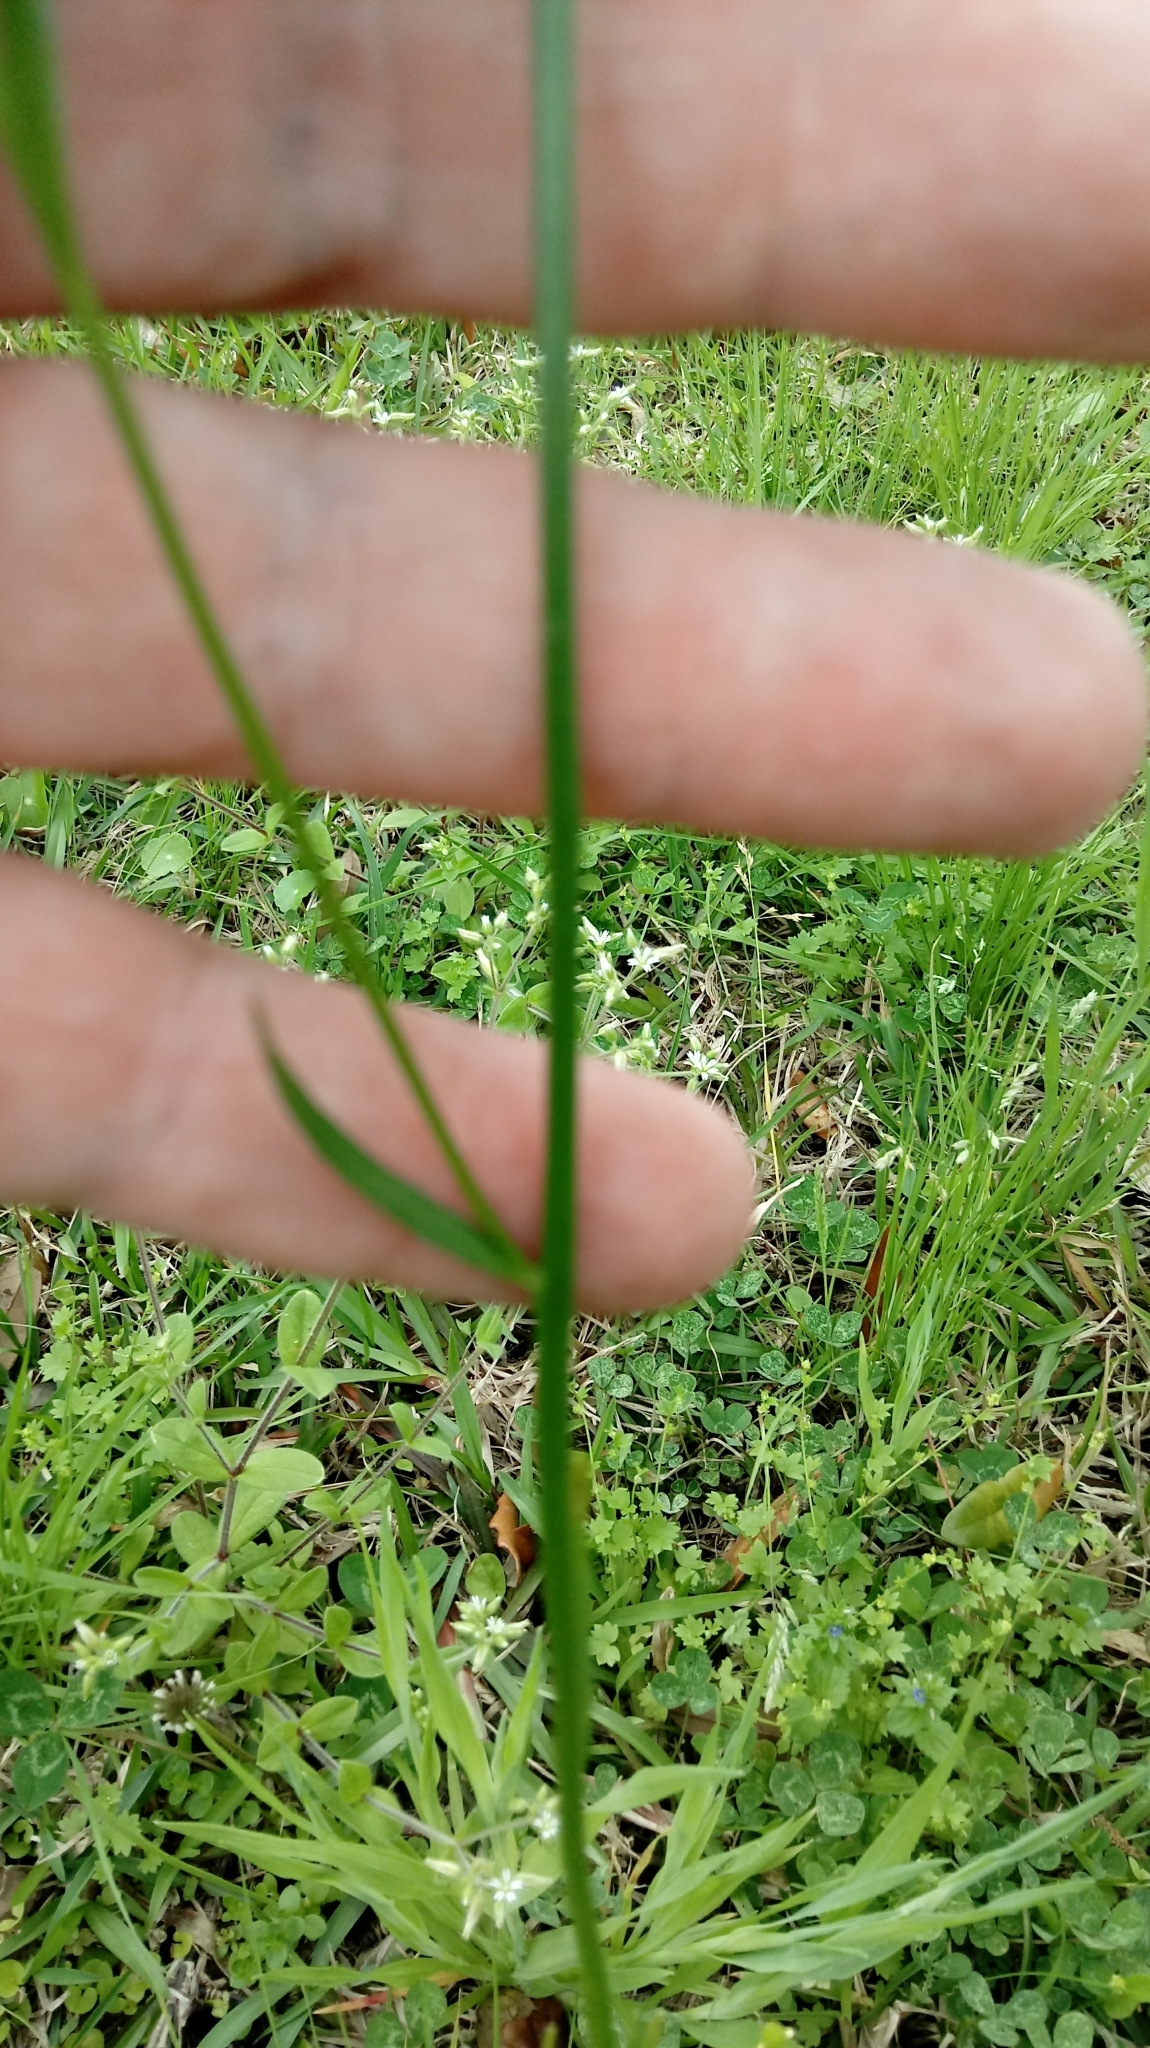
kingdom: Plantae
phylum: Tracheophyta
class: Magnoliopsida
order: Lamiales
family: Plantaginaceae
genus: Nuttallanthus
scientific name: Nuttallanthus canadensis
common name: Blue toadflax
